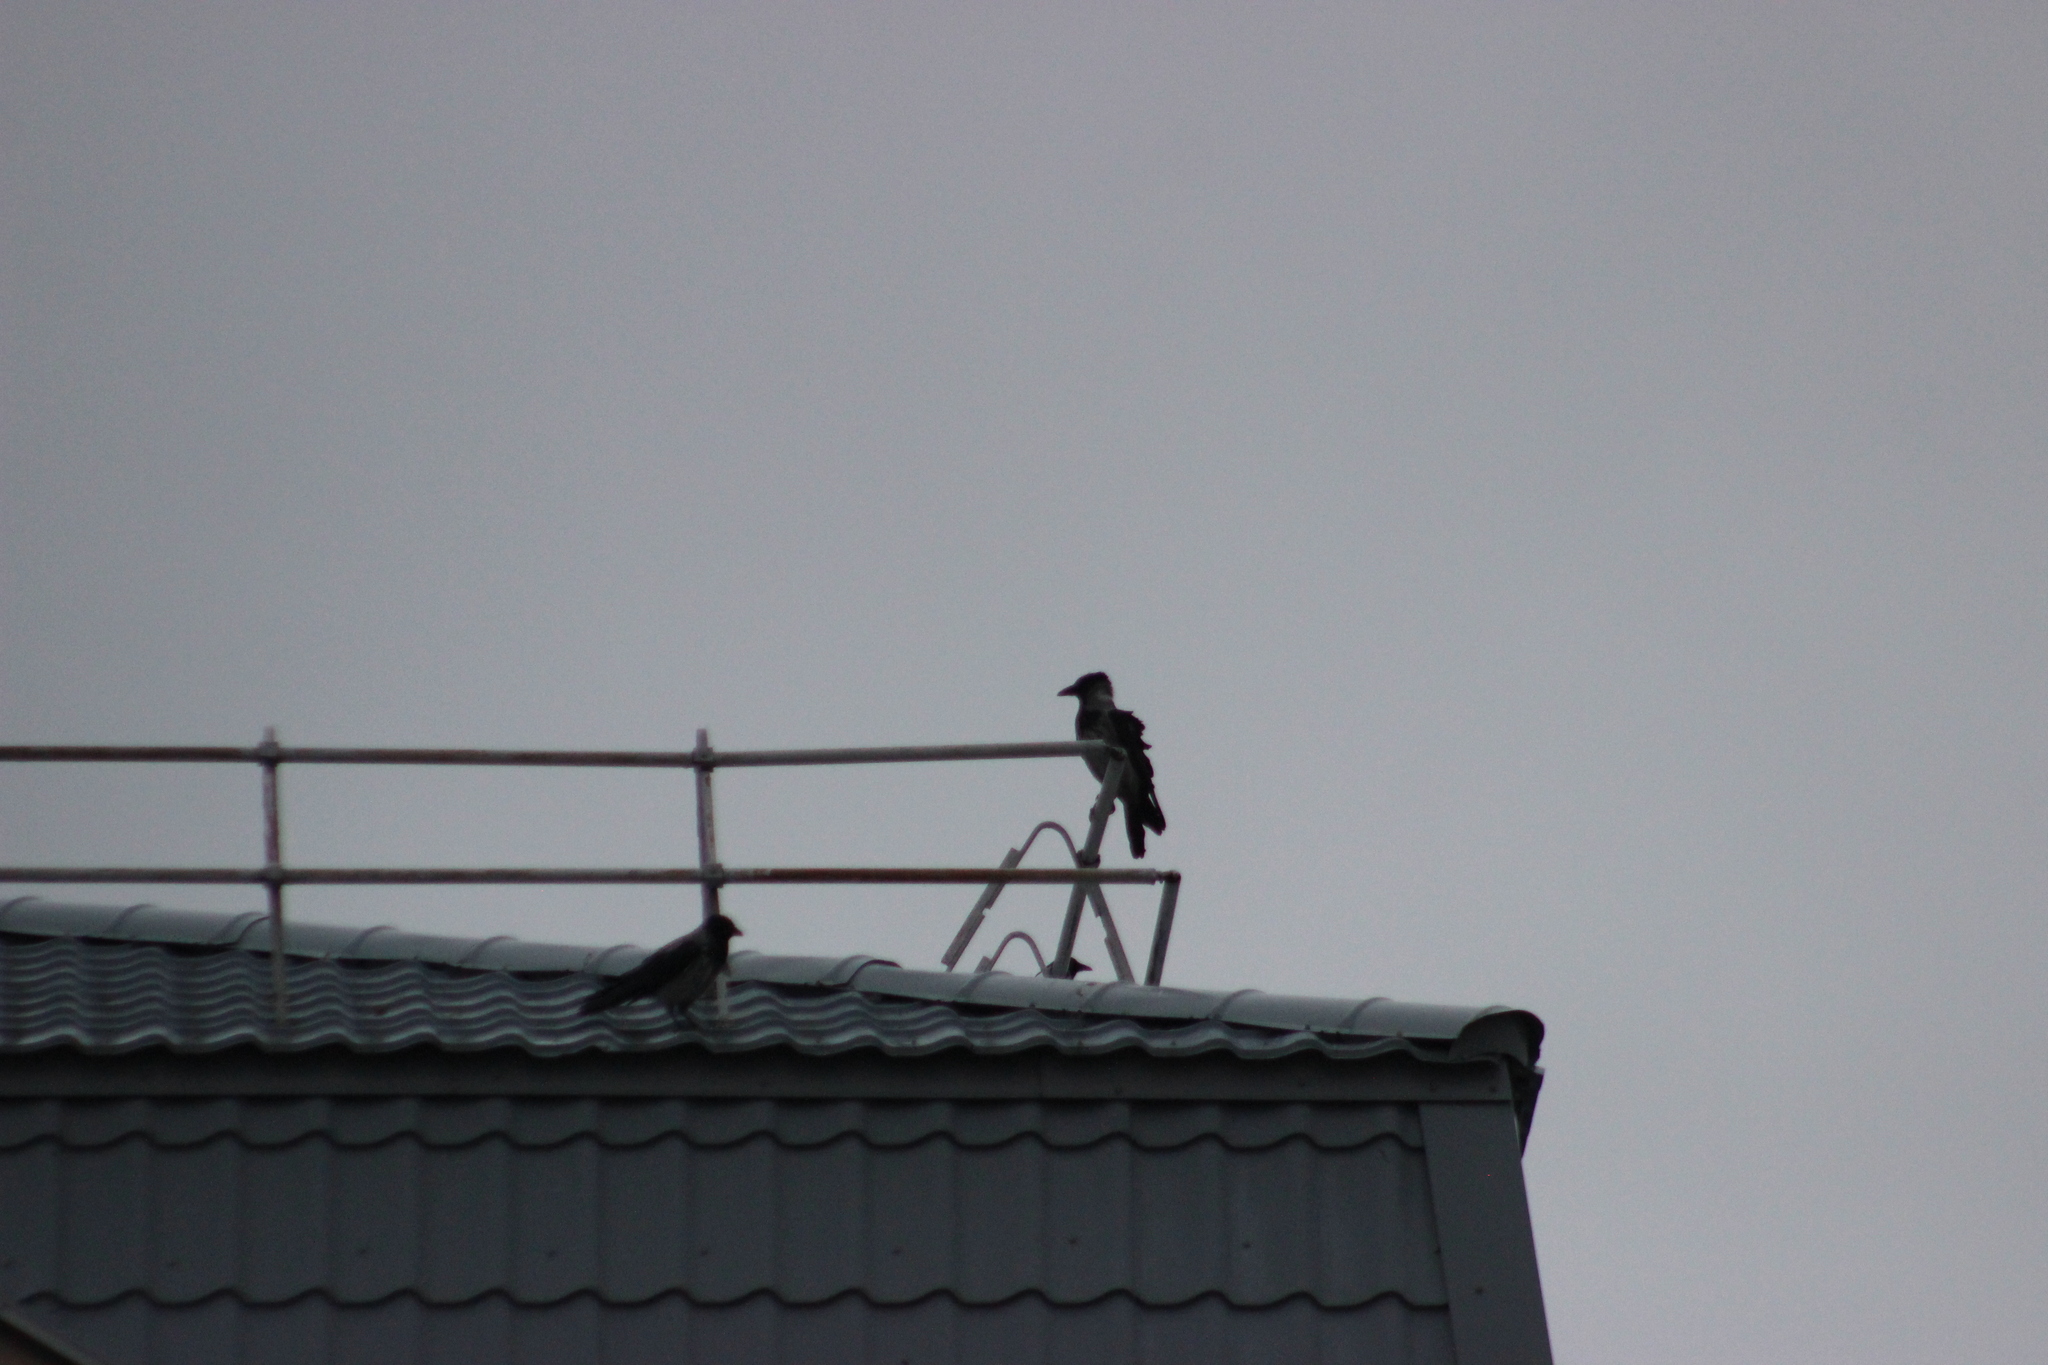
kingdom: Animalia
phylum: Chordata
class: Aves
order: Passeriformes
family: Corvidae
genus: Corvus
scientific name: Corvus cornix
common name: Hooded crow
